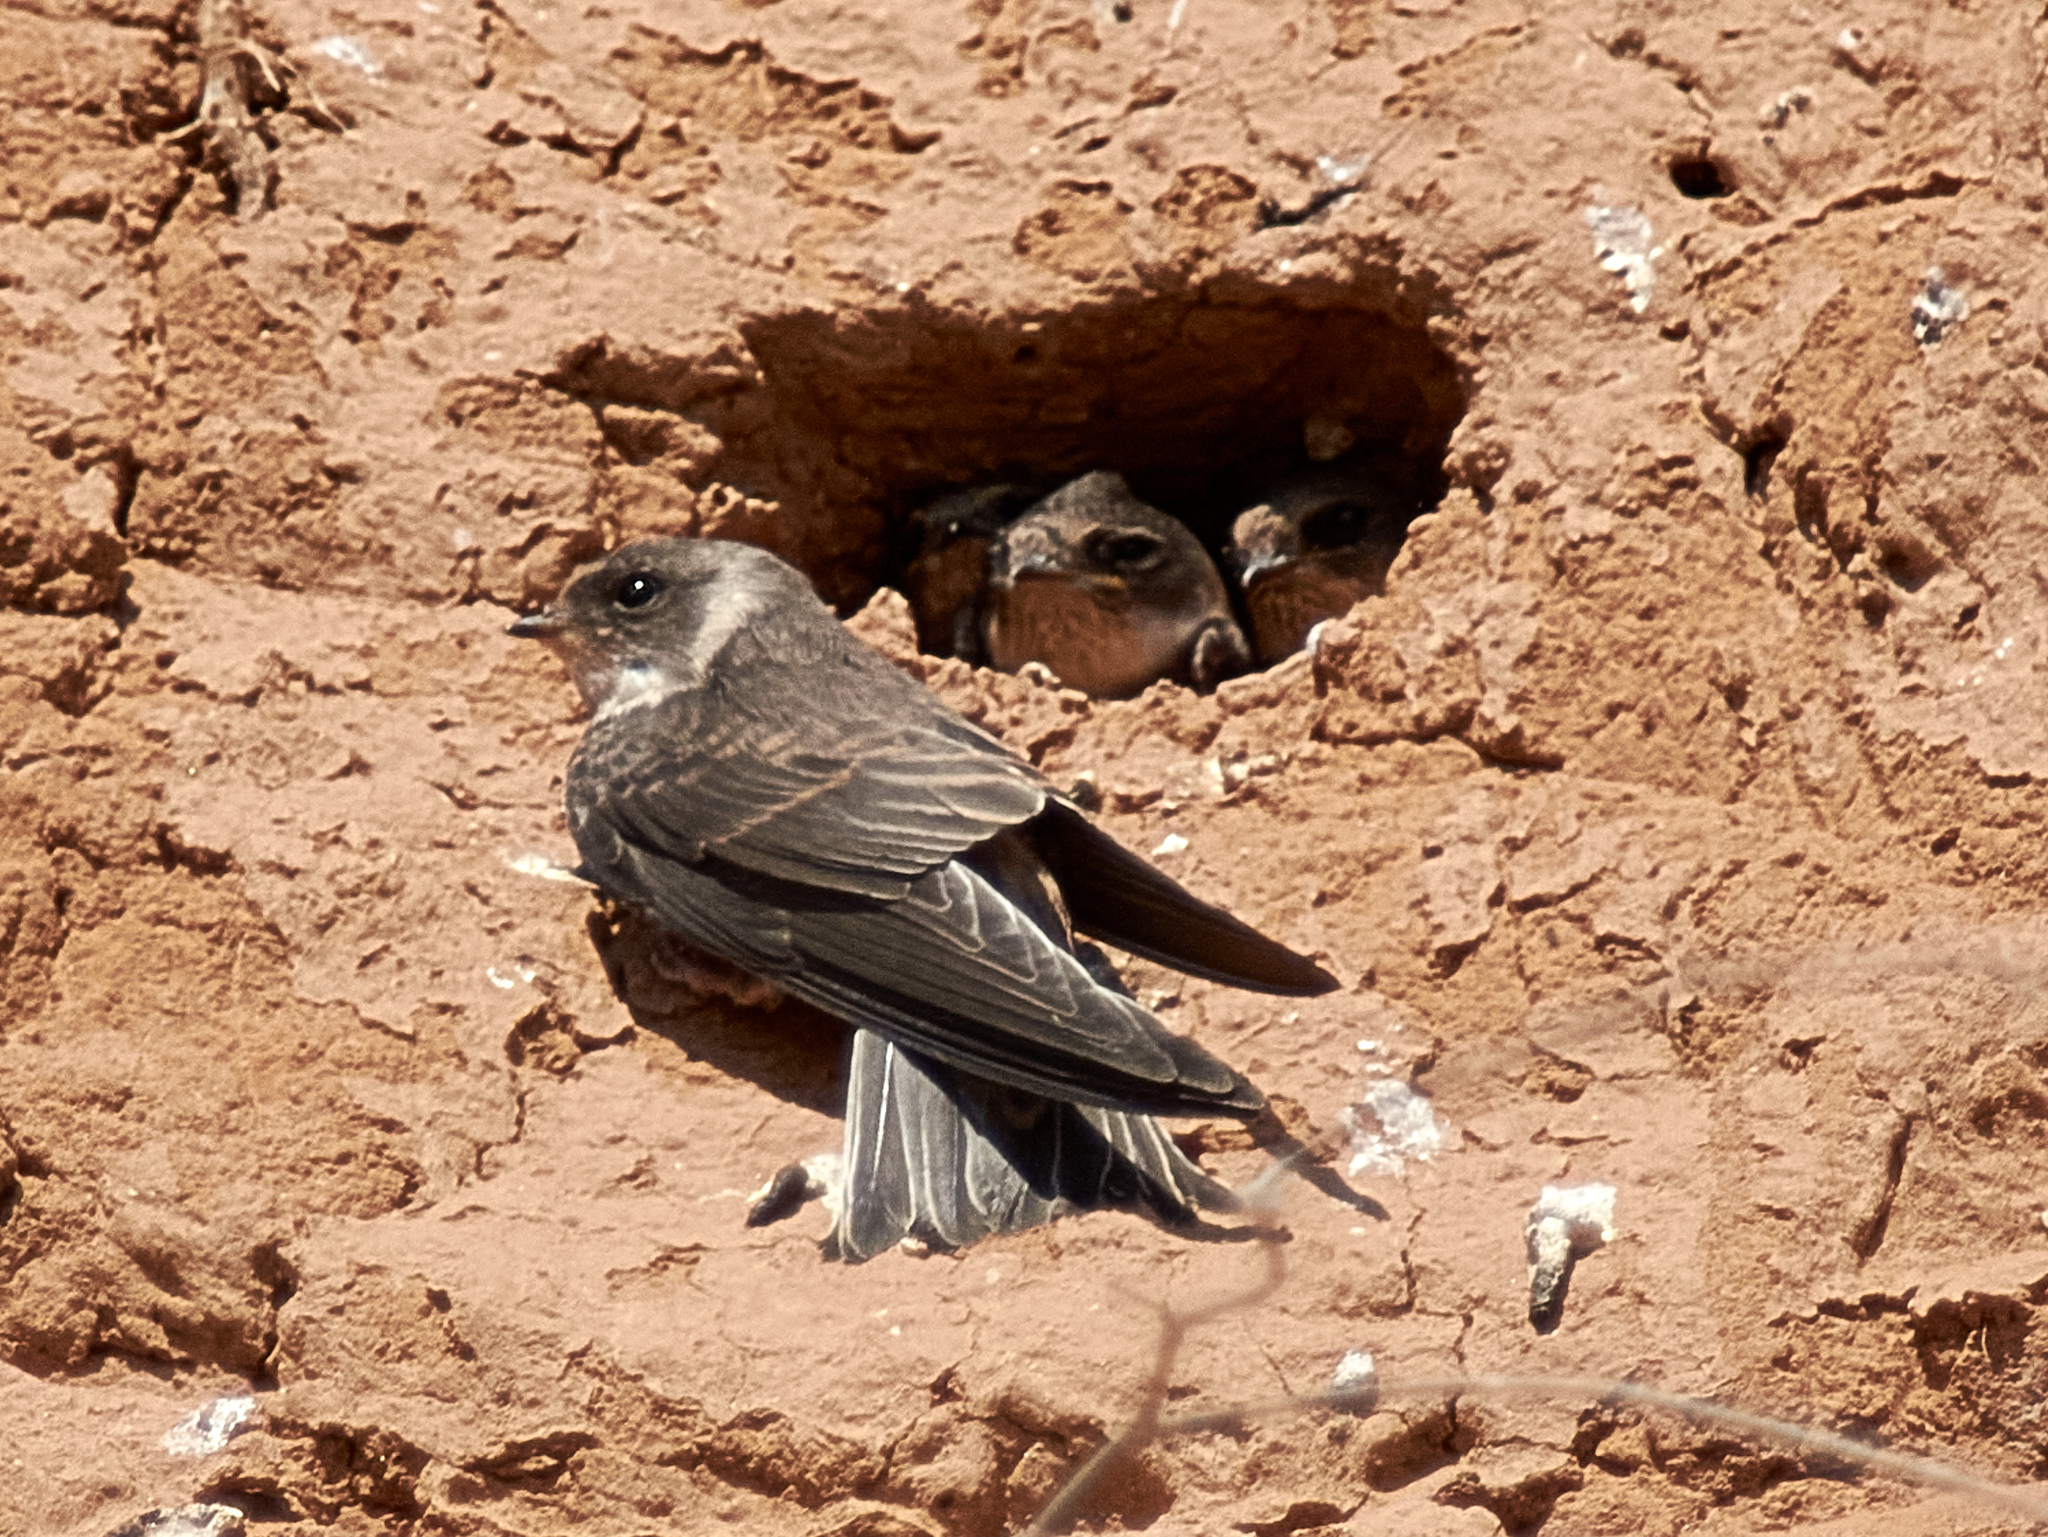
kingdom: Animalia
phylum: Chordata
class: Aves
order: Passeriformes
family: Hirundinidae
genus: Riparia
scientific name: Riparia riparia
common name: Sand martin
